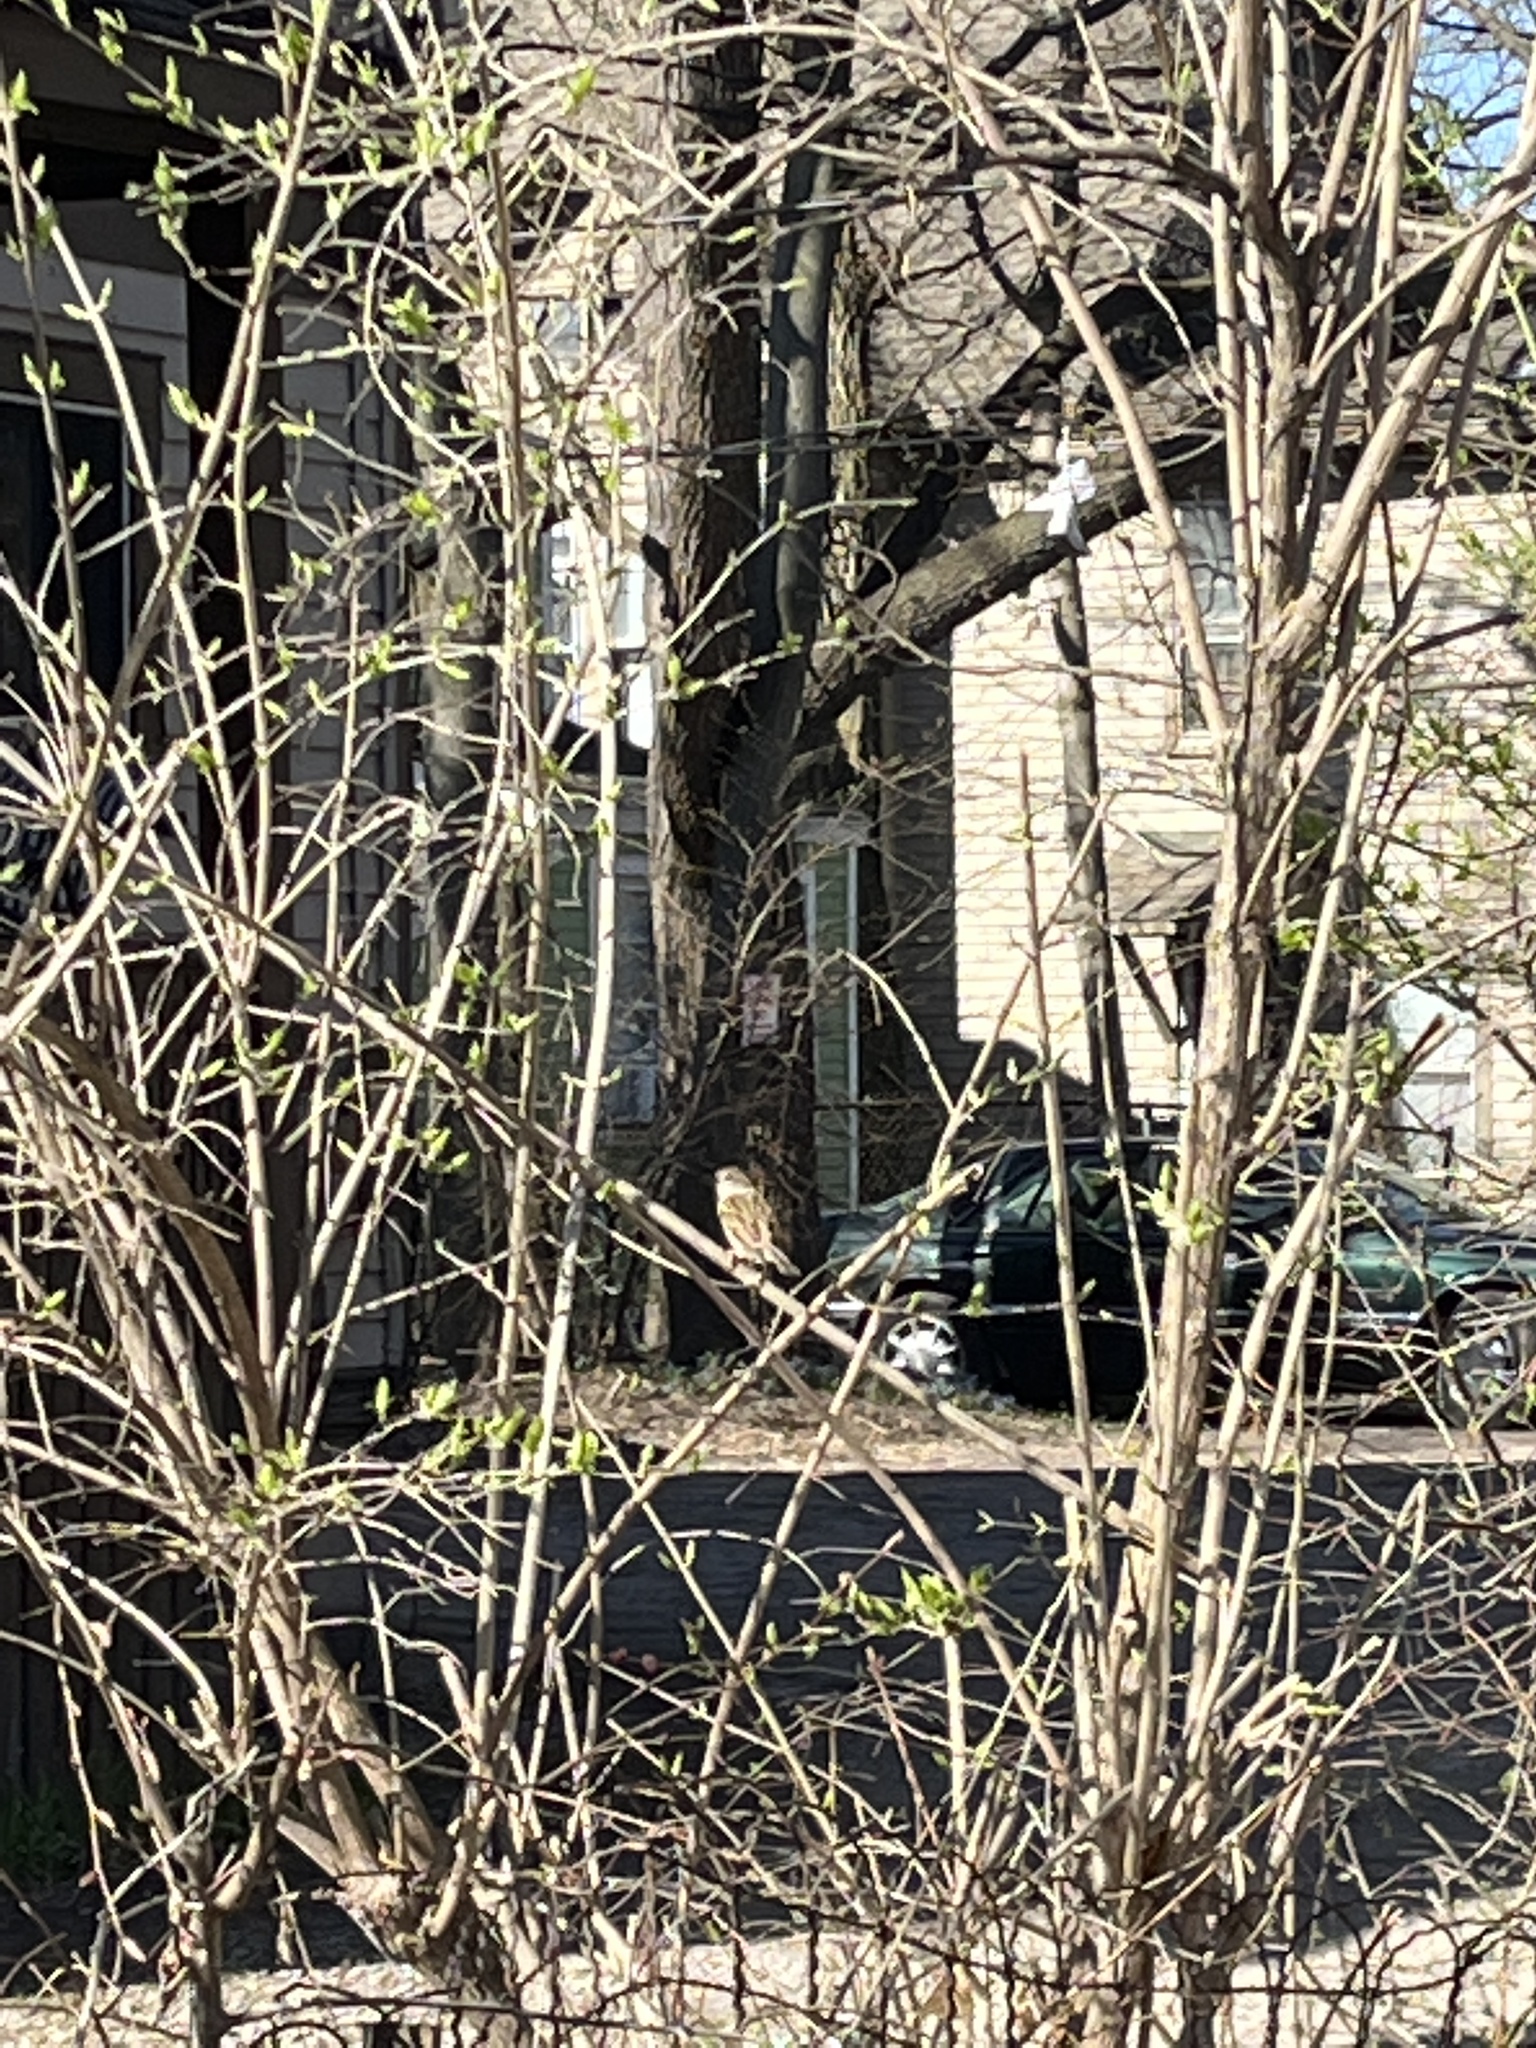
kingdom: Animalia
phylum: Chordata
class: Aves
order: Passeriformes
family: Passeridae
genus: Passer
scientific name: Passer domesticus
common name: House sparrow
